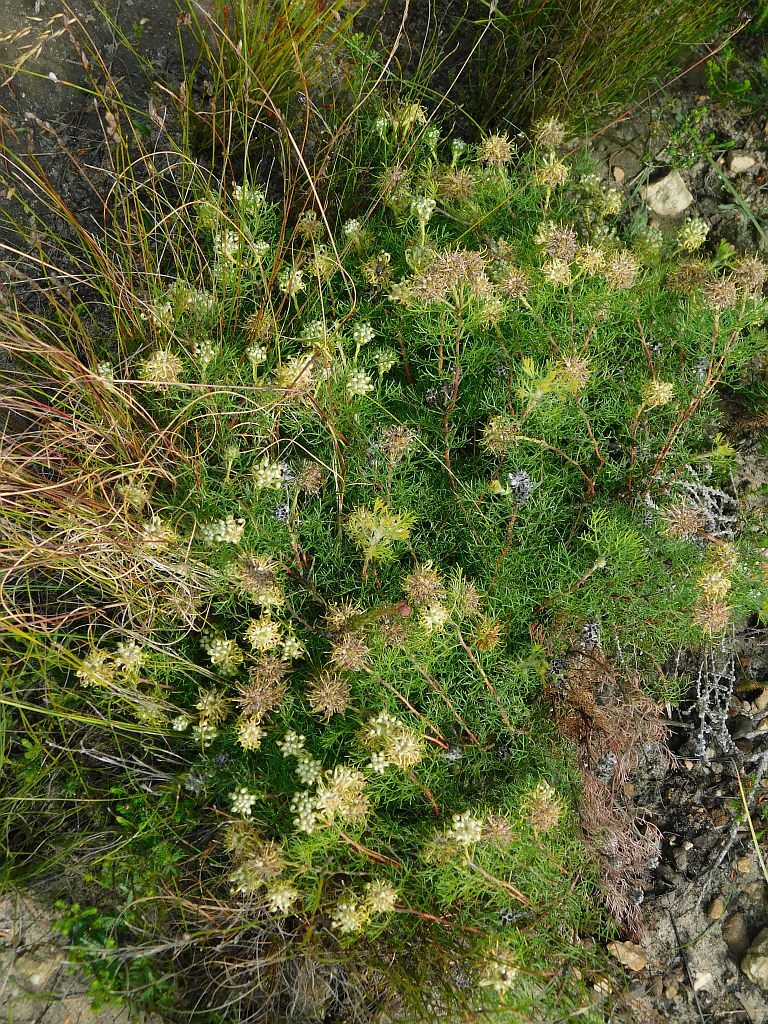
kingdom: Plantae
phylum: Tracheophyta
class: Magnoliopsida
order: Proteales
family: Proteaceae
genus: Serruria
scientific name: Serruria
